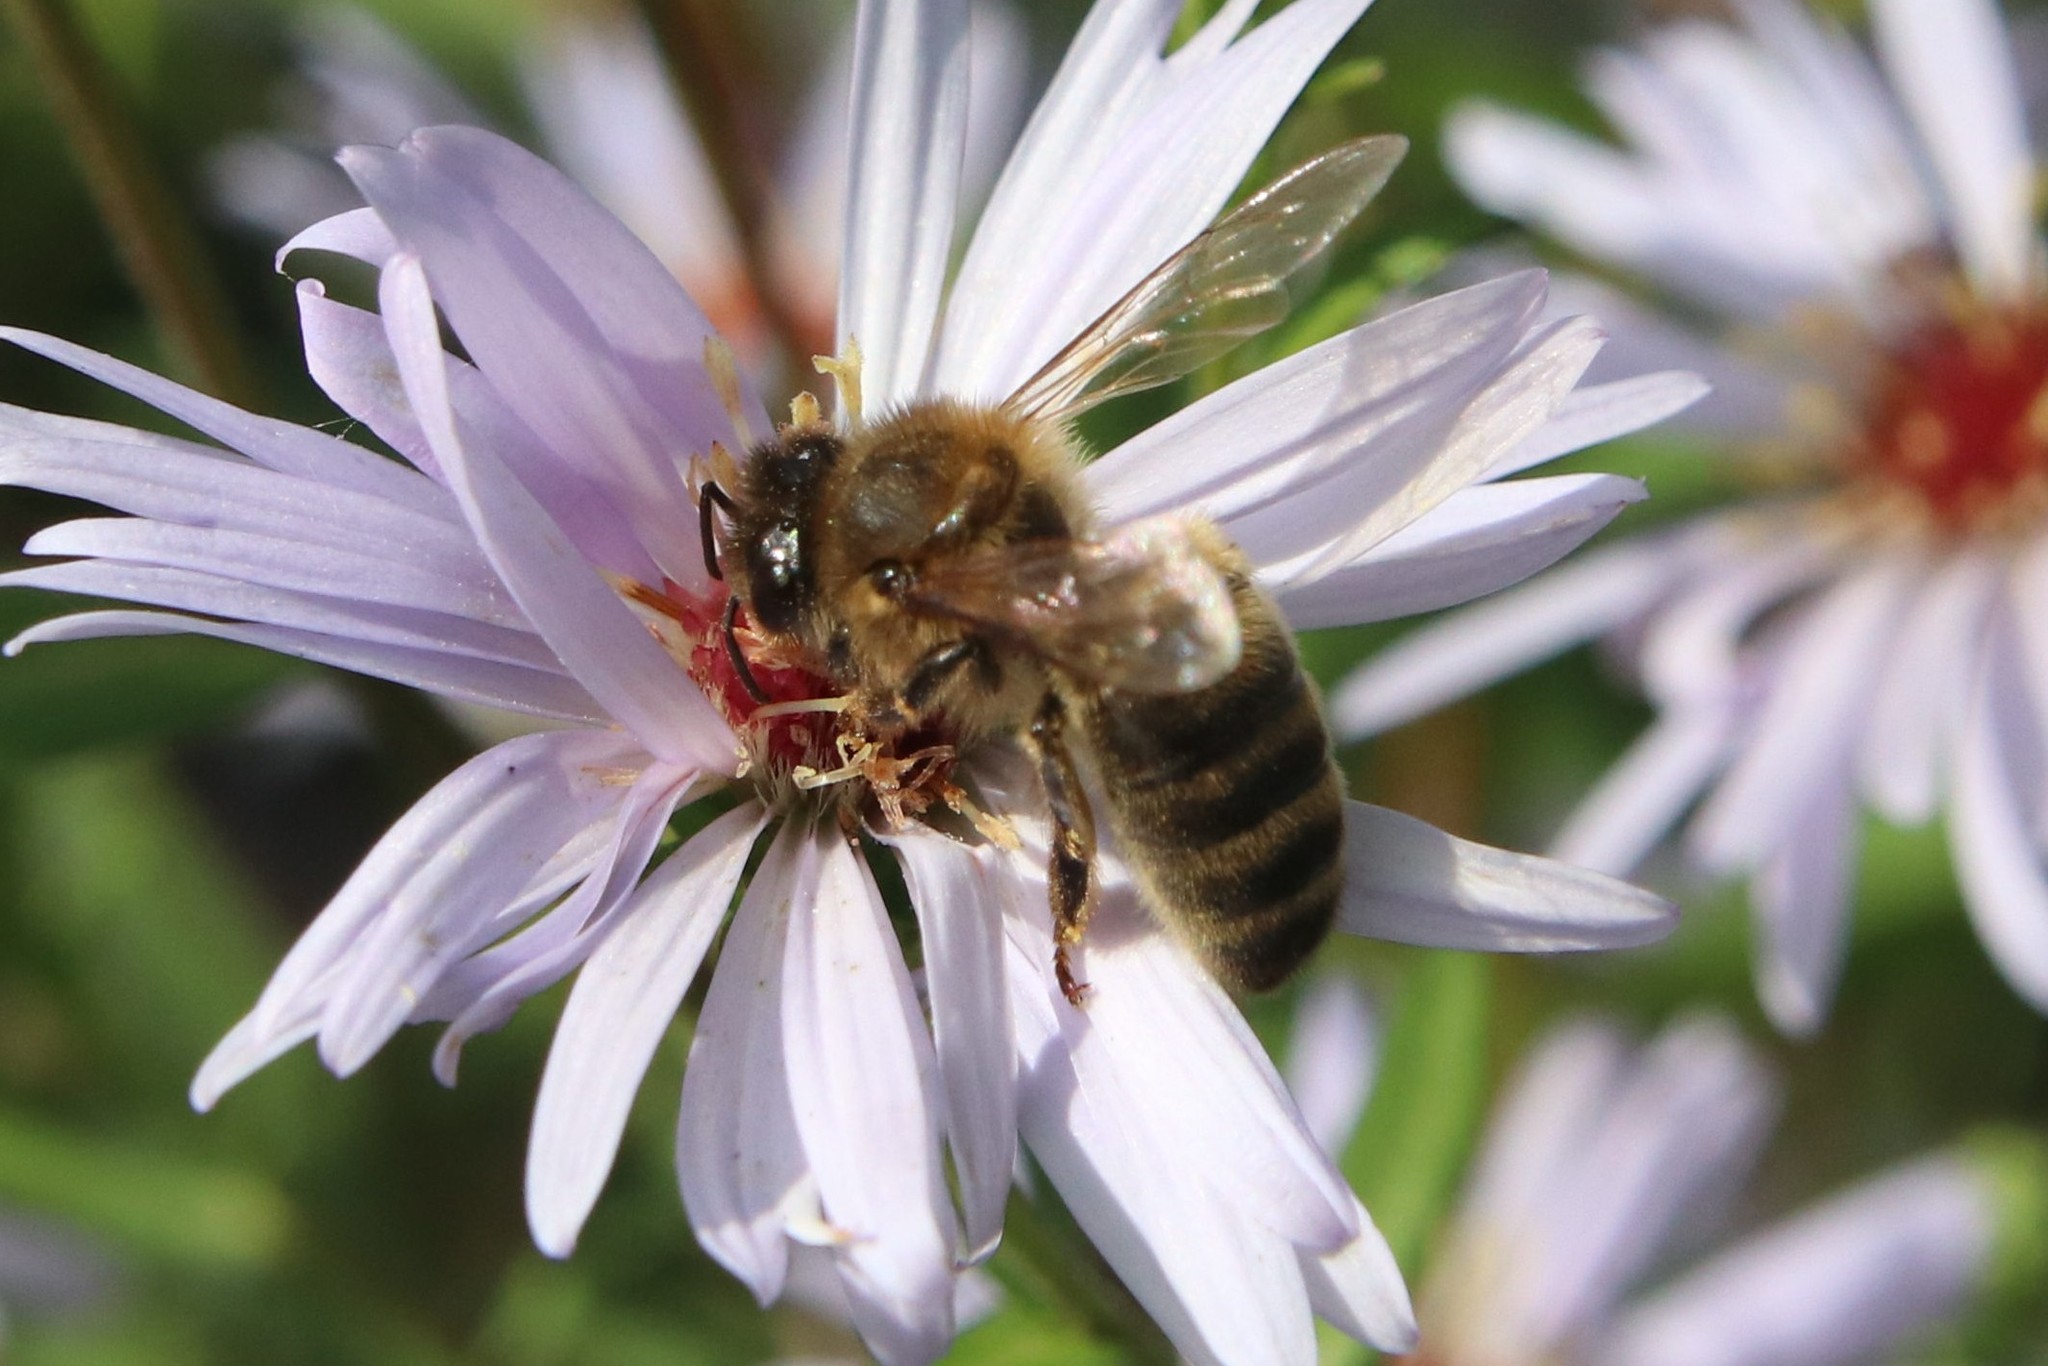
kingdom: Animalia
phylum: Arthropoda
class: Insecta
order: Hymenoptera
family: Apidae
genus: Apis
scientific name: Apis mellifera
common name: Honey bee
